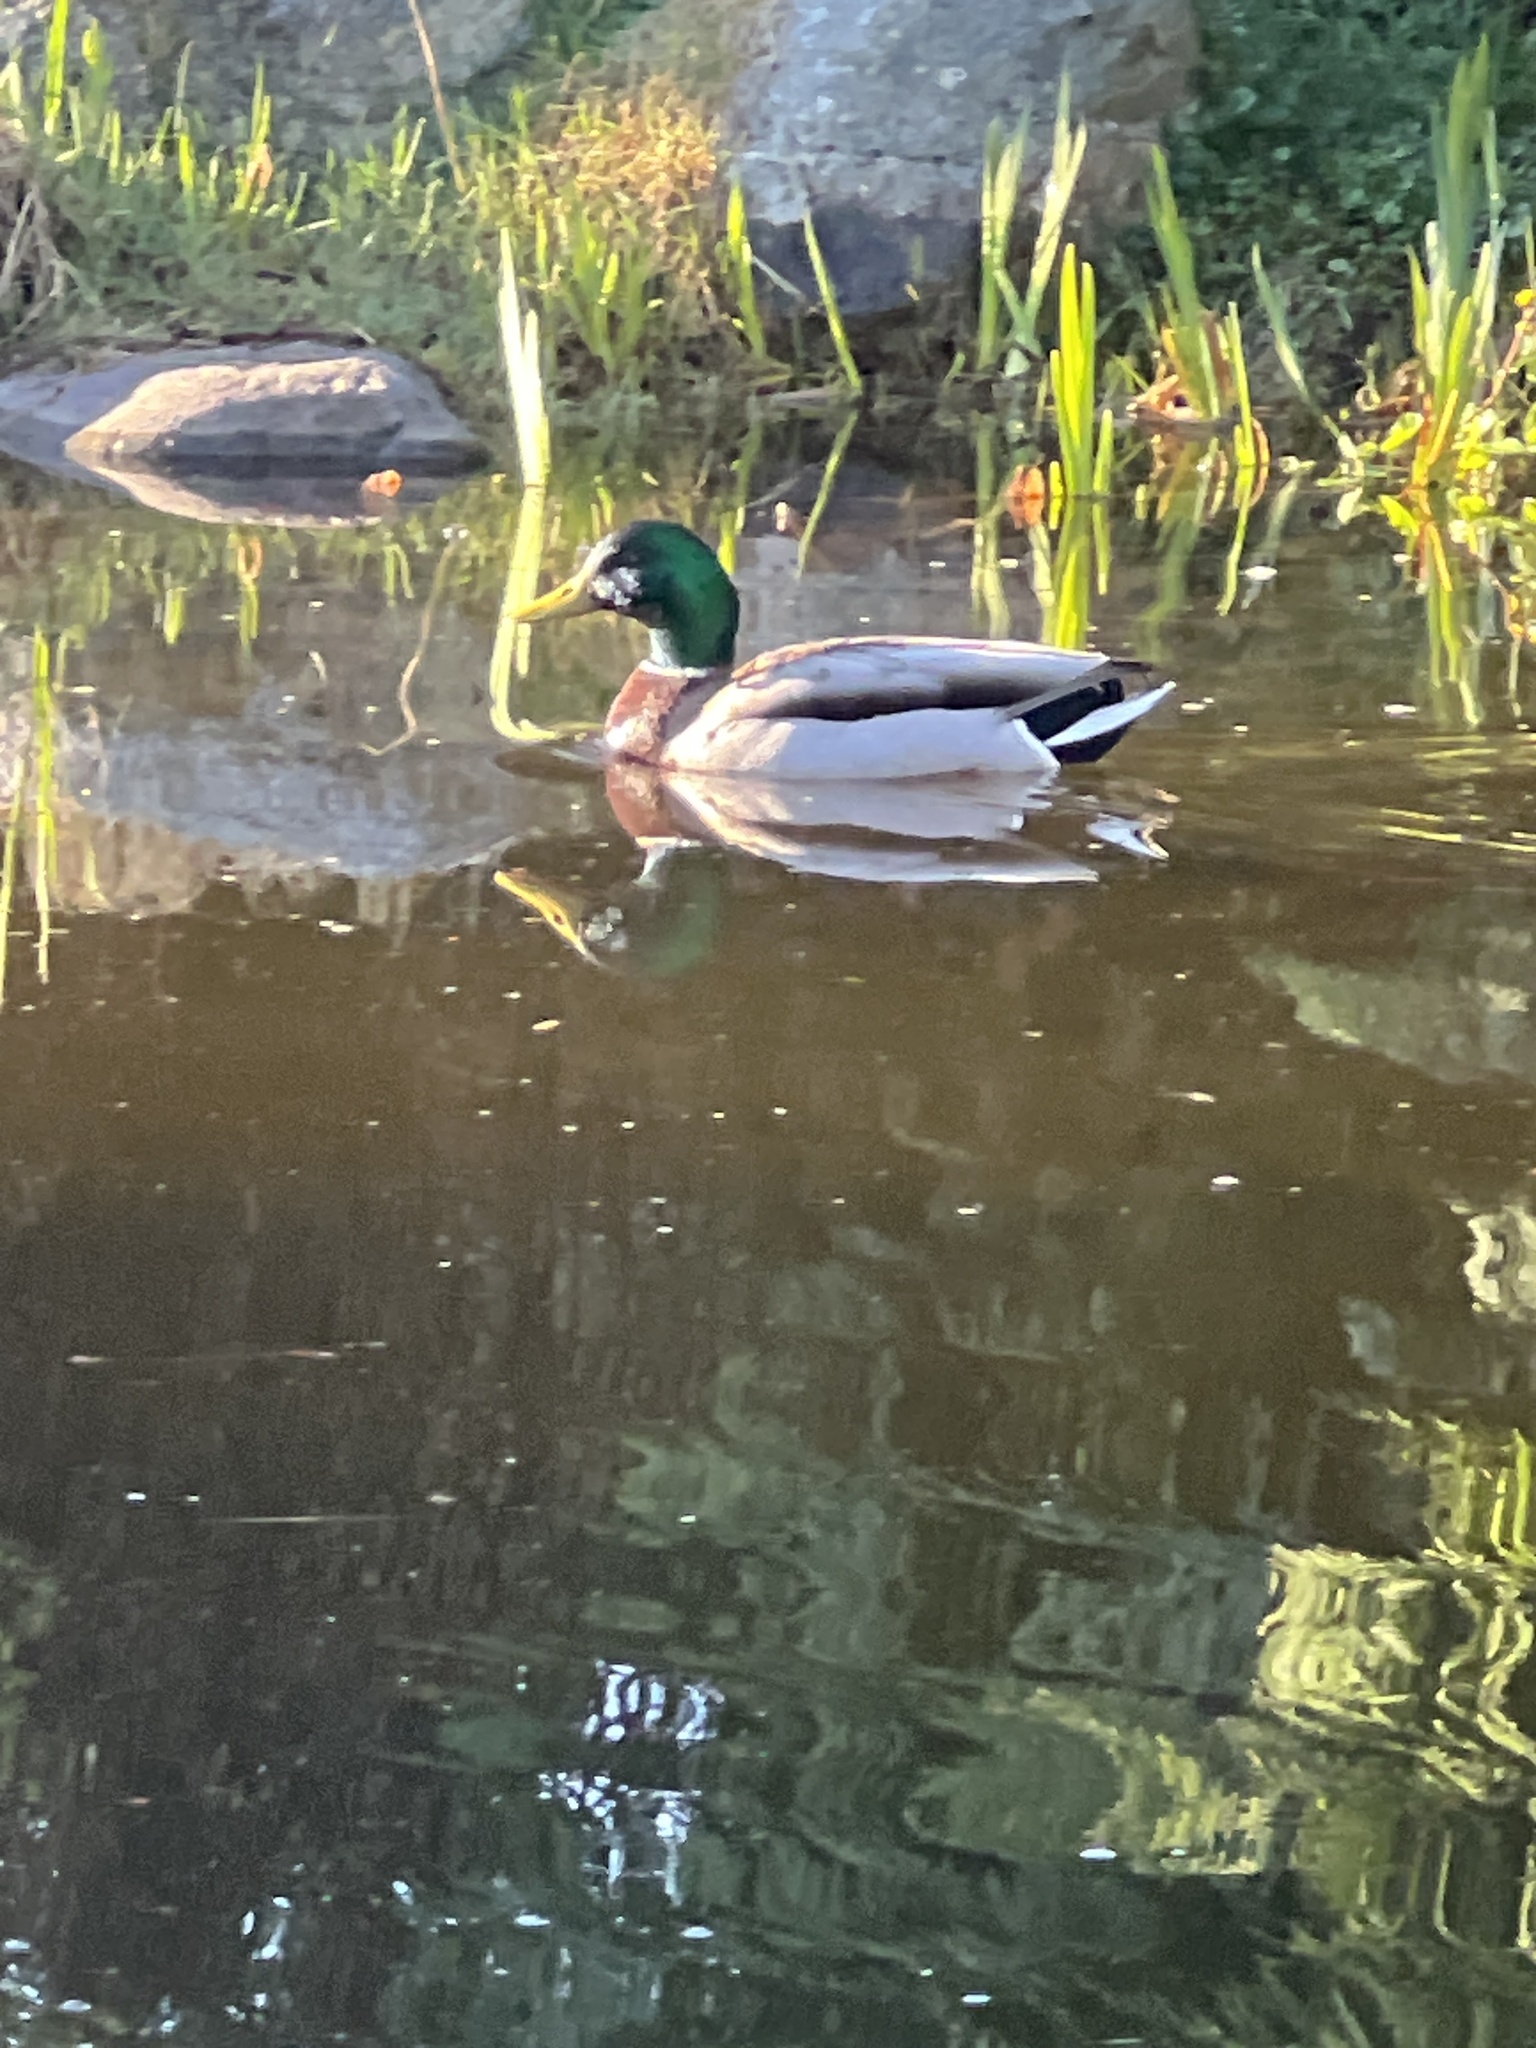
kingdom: Animalia
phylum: Chordata
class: Aves
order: Anseriformes
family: Anatidae
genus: Anas
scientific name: Anas platyrhynchos
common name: Mallard
